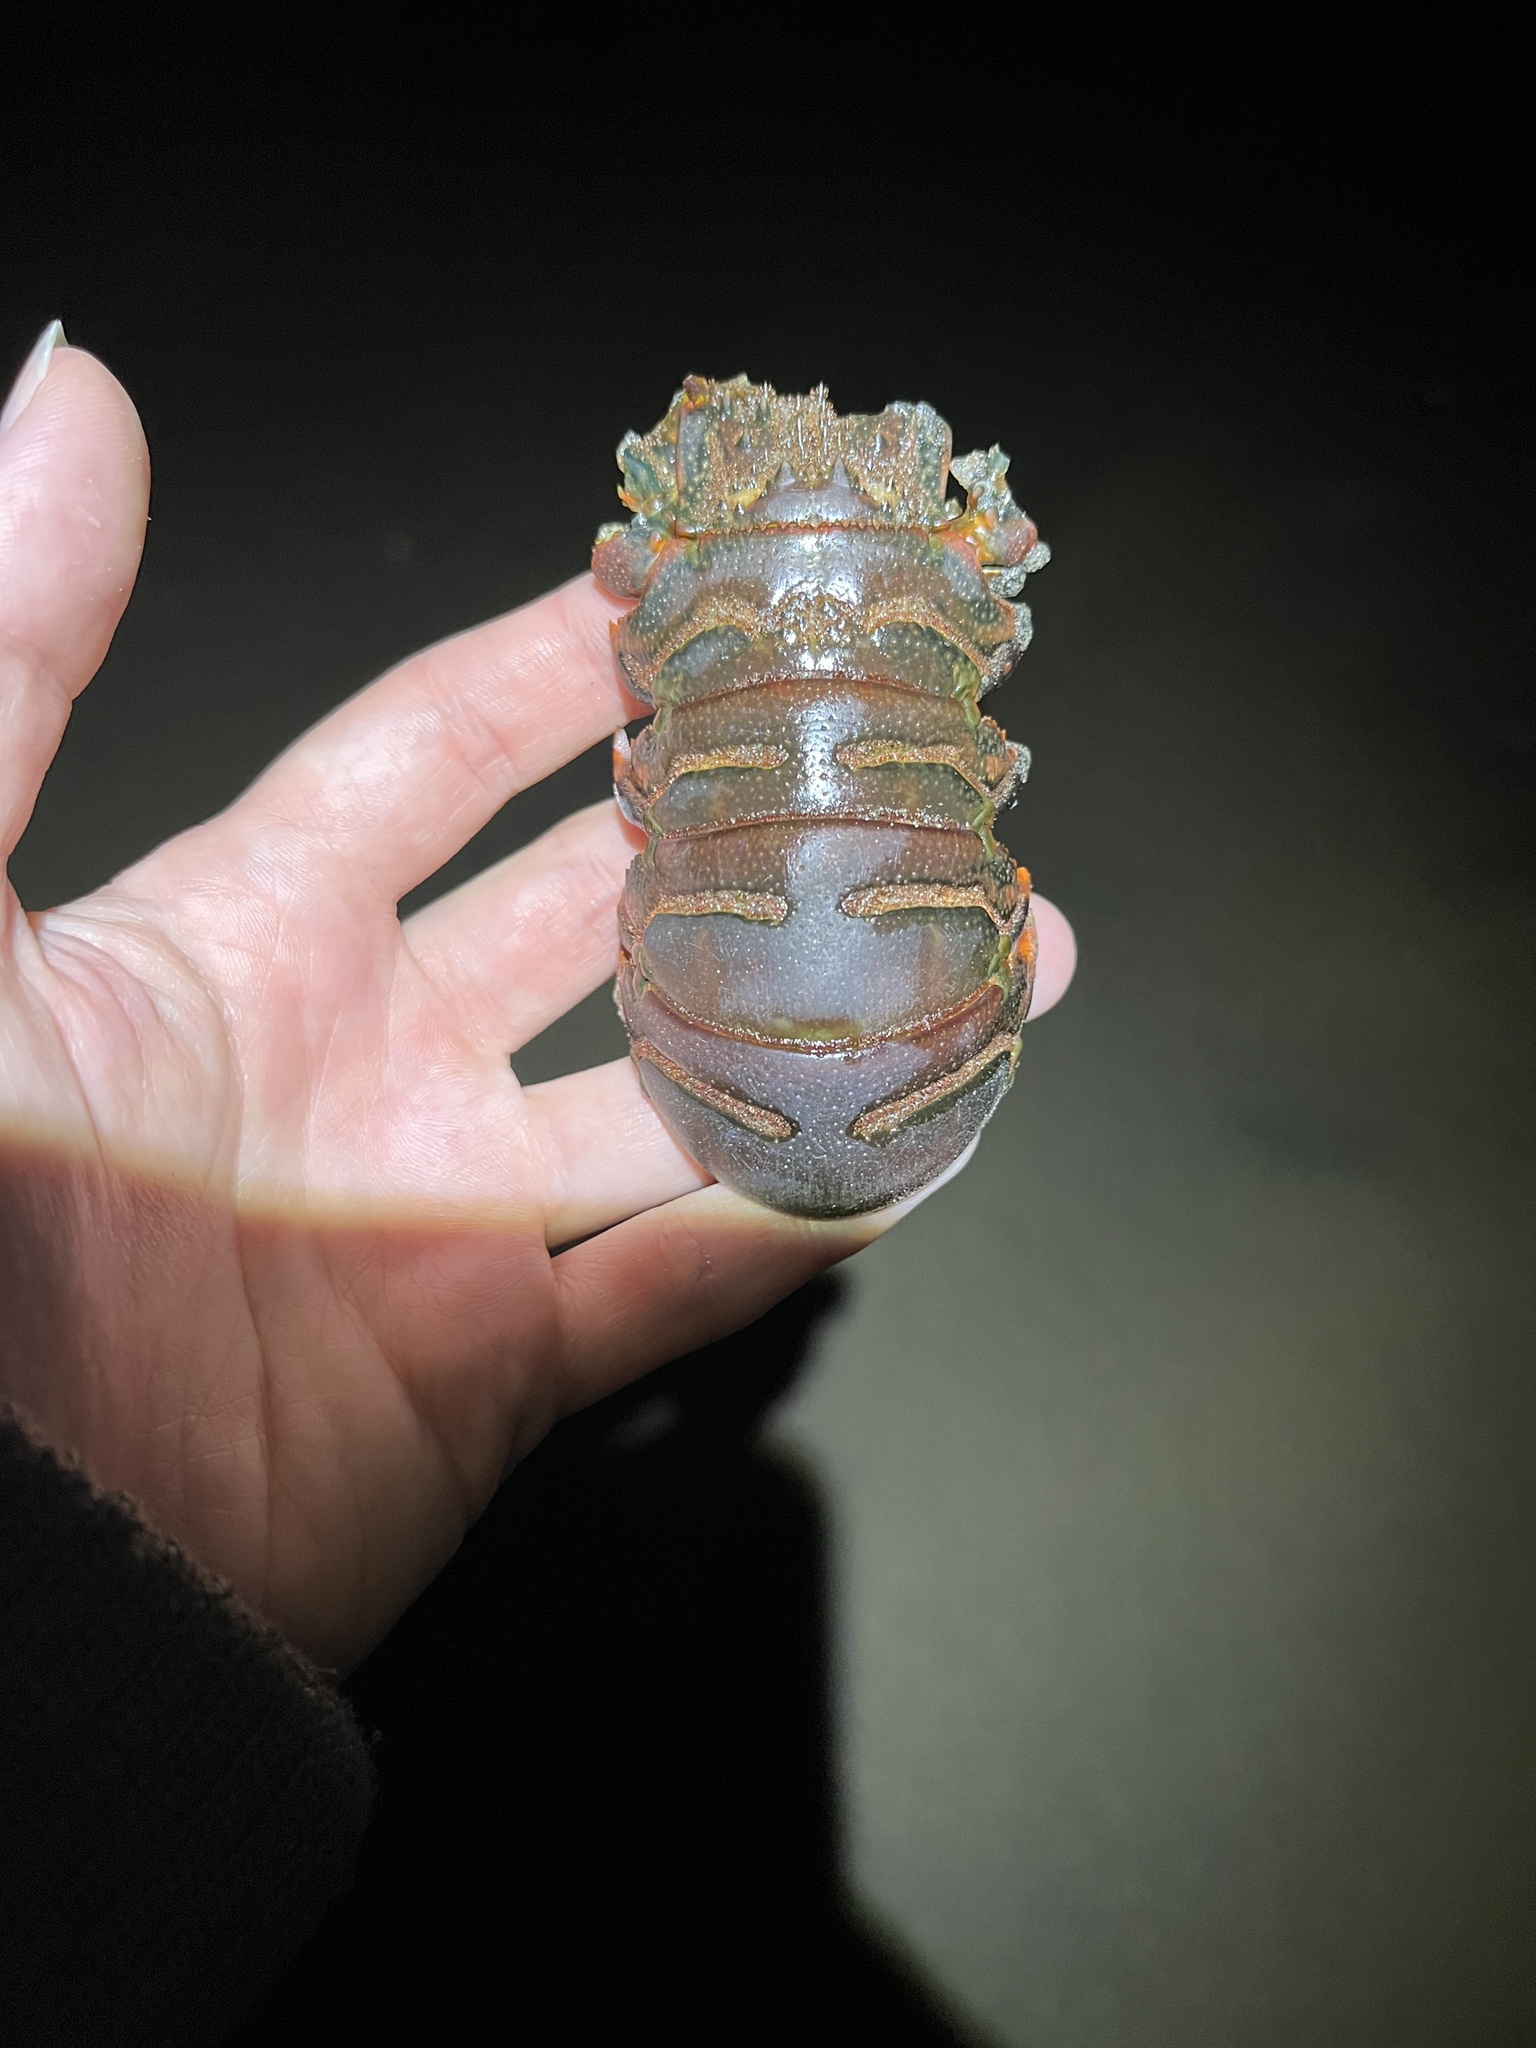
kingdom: Animalia
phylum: Arthropoda
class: Malacostraca
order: Decapoda
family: Palinuridae
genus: Panulirus
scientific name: Panulirus interruptus
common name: California spiny lobster
